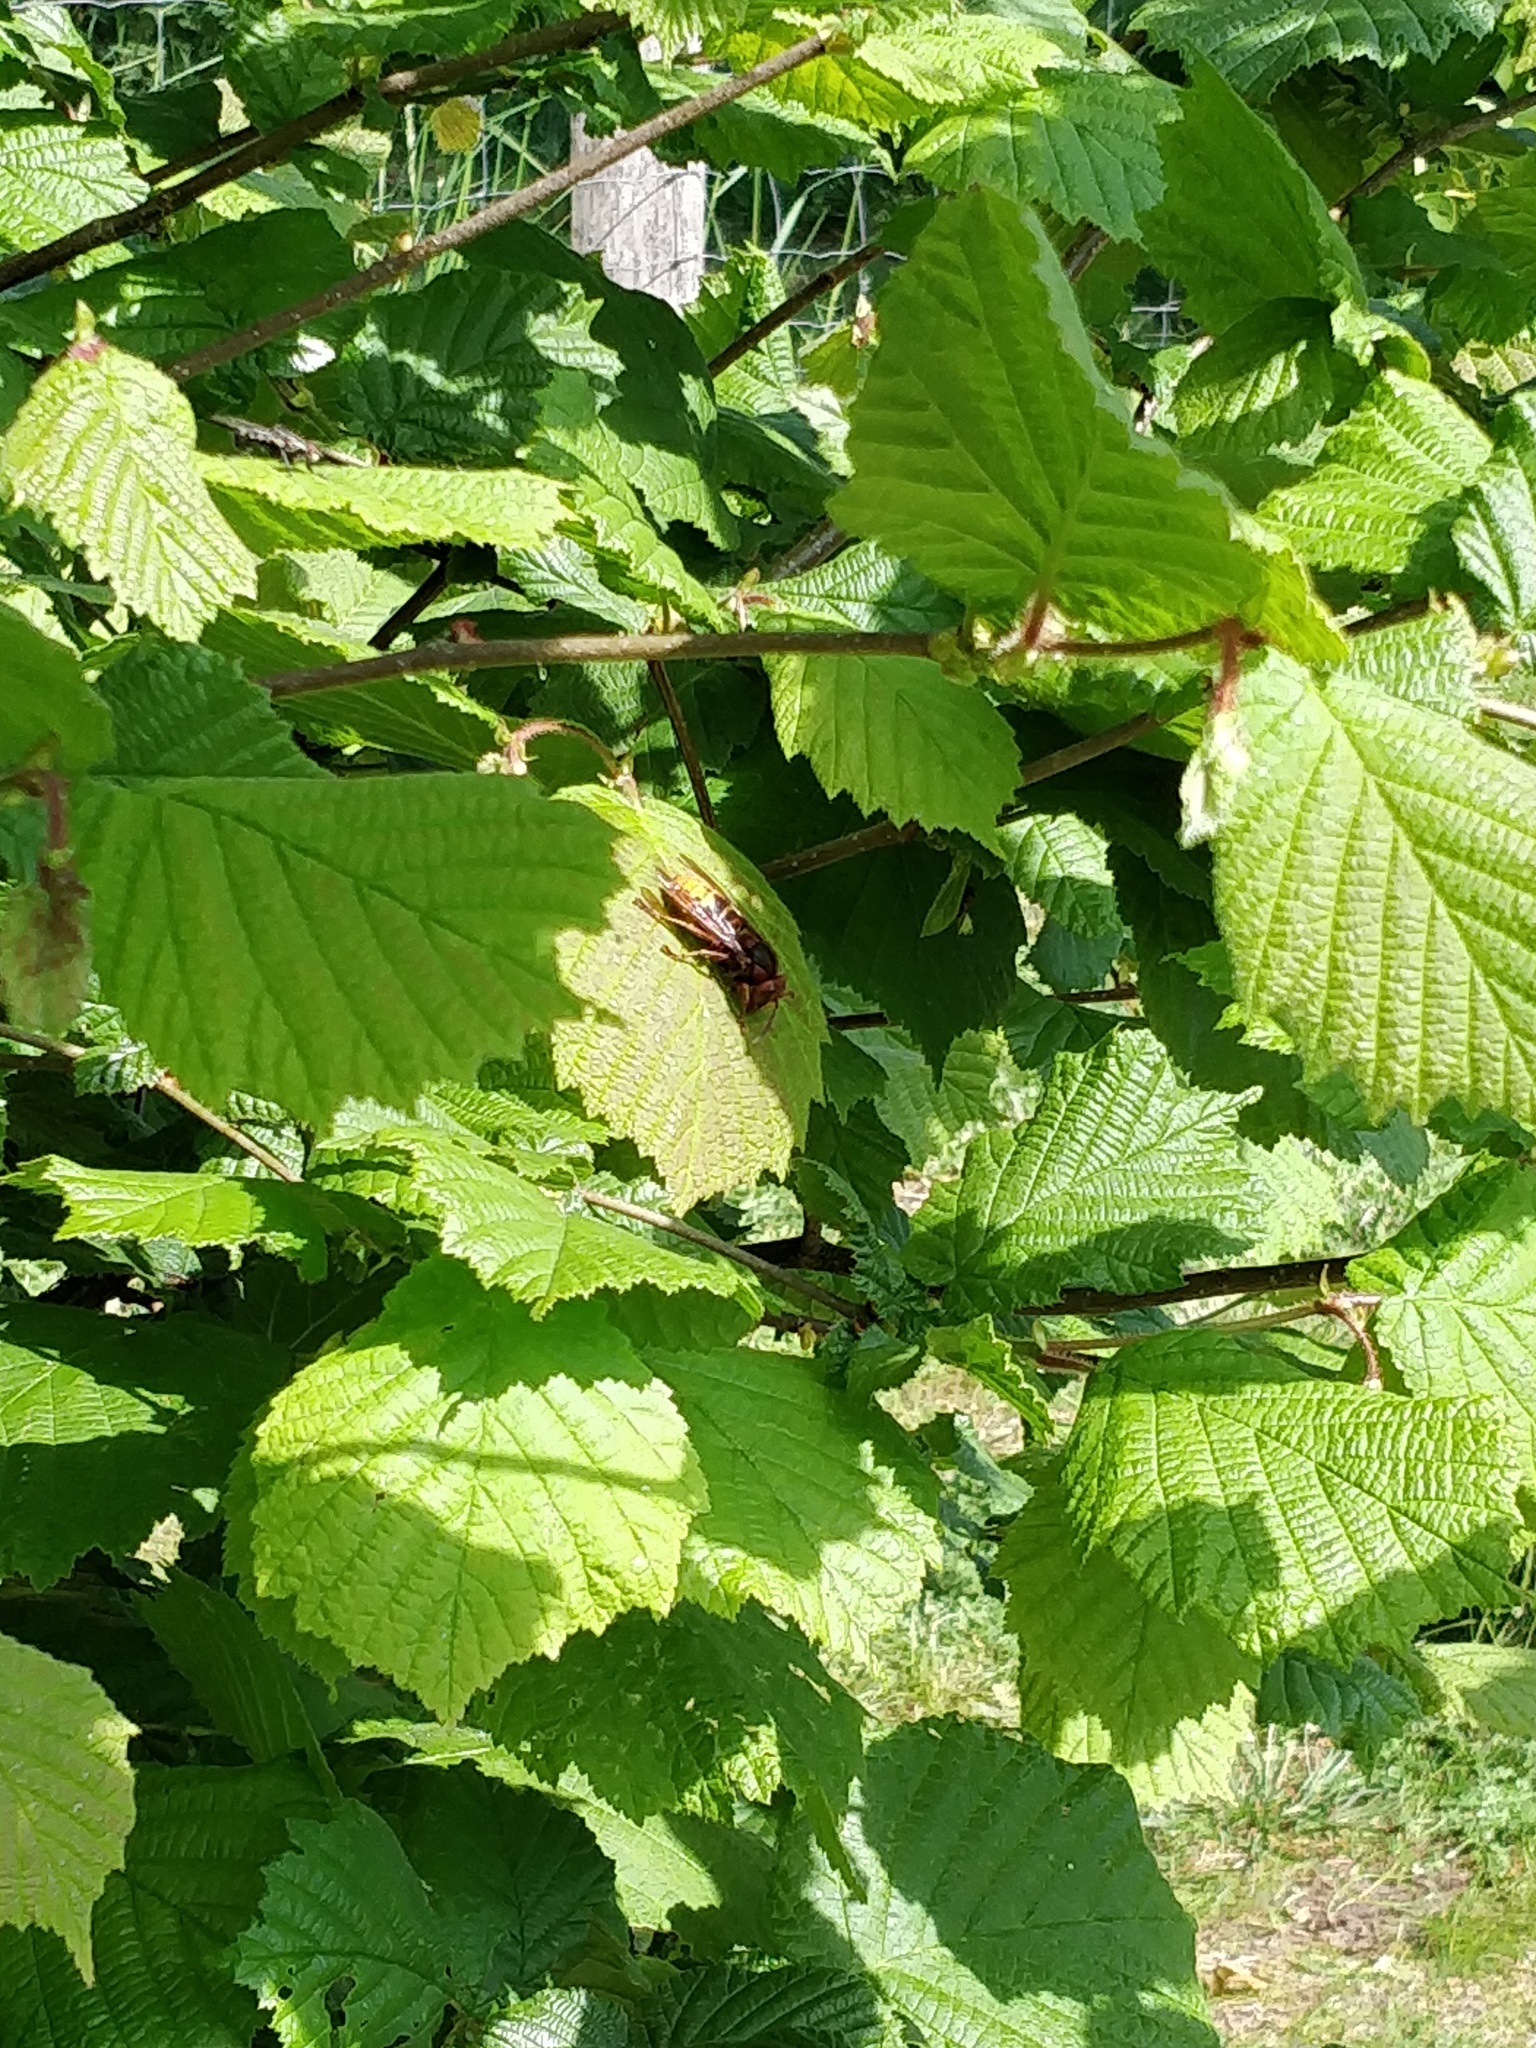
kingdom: Animalia
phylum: Arthropoda
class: Insecta
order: Hymenoptera
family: Vespidae
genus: Vespa
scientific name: Vespa crabro
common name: Hornet
